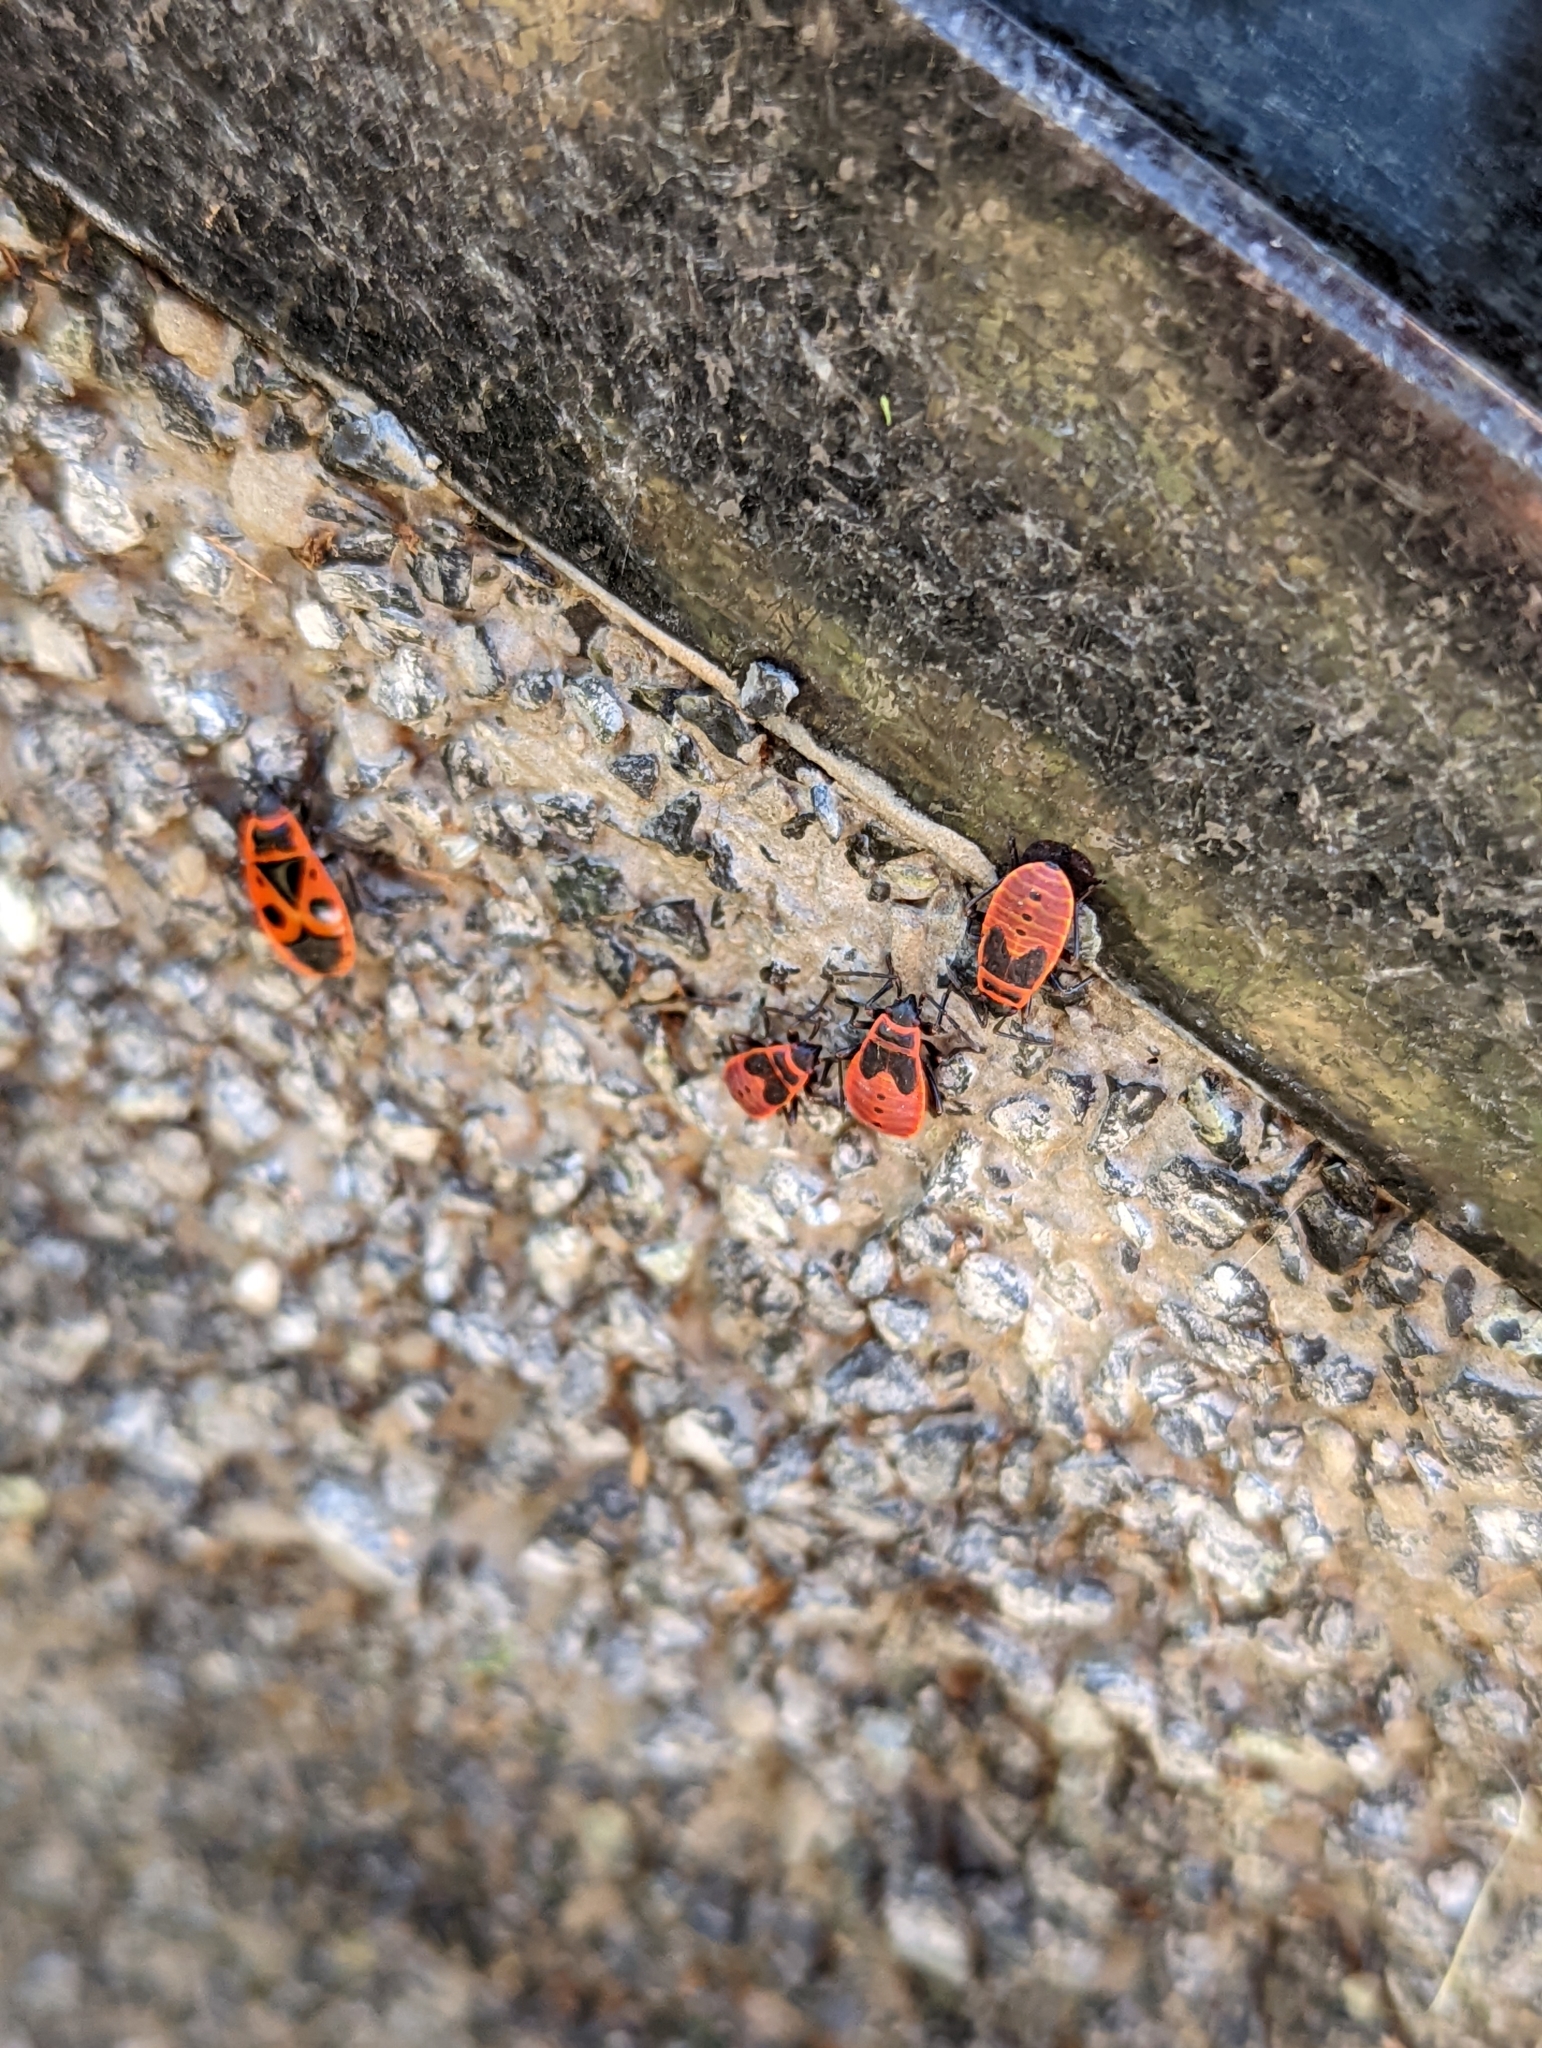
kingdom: Animalia
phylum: Arthropoda
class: Insecta
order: Hemiptera
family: Pyrrhocoridae
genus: Pyrrhocoris
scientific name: Pyrrhocoris apterus
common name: Firebug
